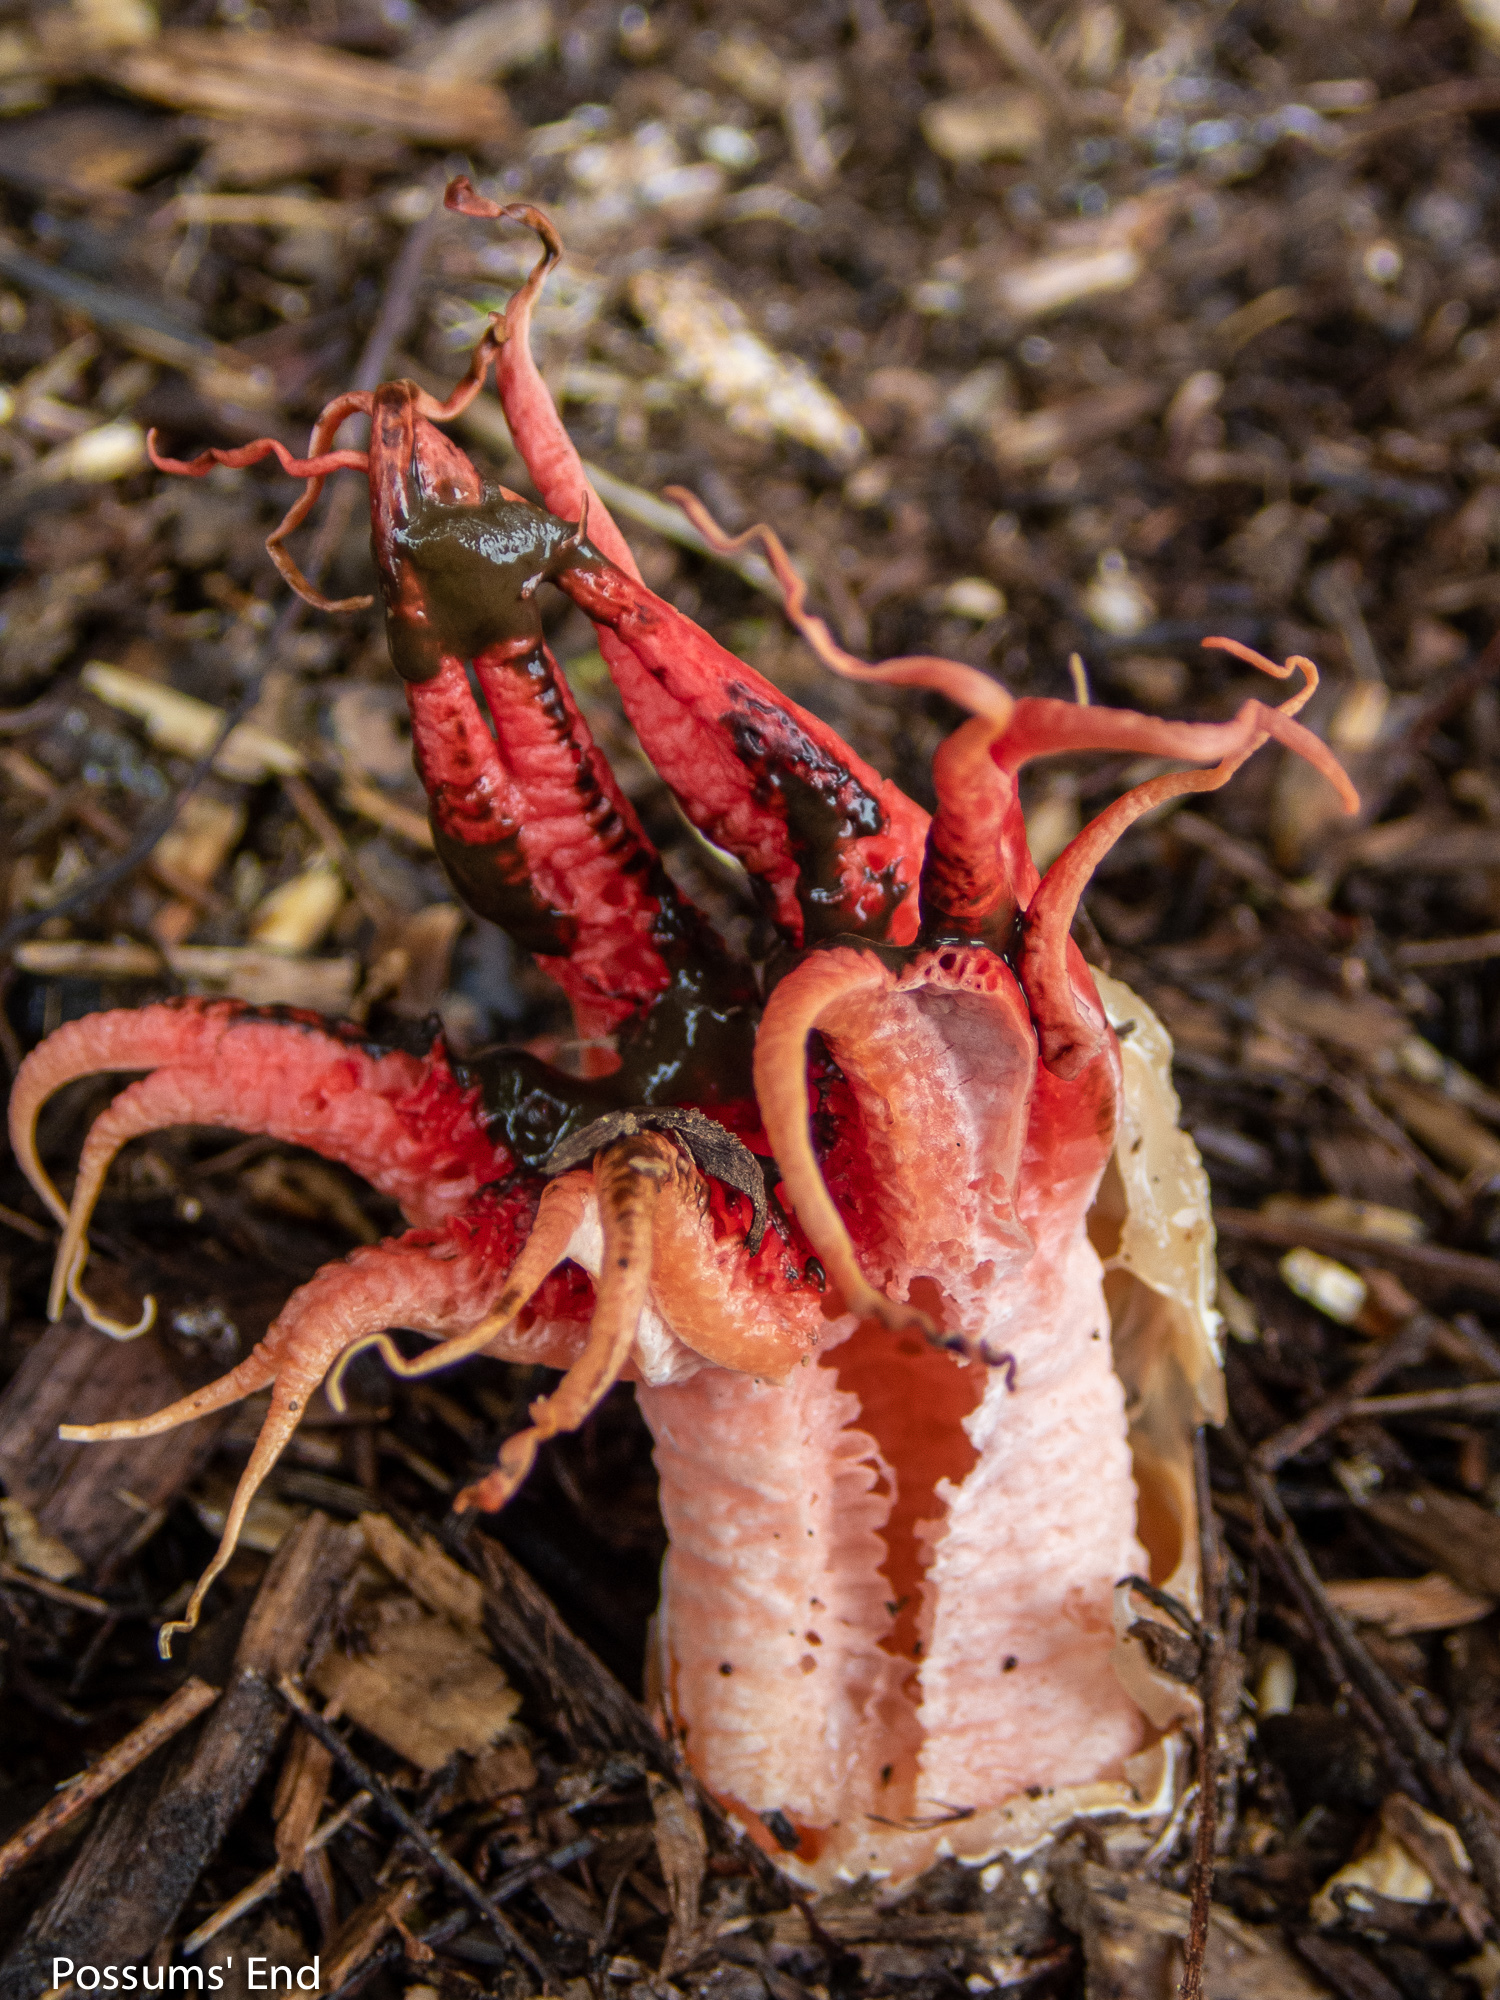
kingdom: Fungi
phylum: Basidiomycota
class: Agaricomycetes
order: Phallales
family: Phallaceae
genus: Aseroe
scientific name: Aseroe rubra
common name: Starfish fungus
